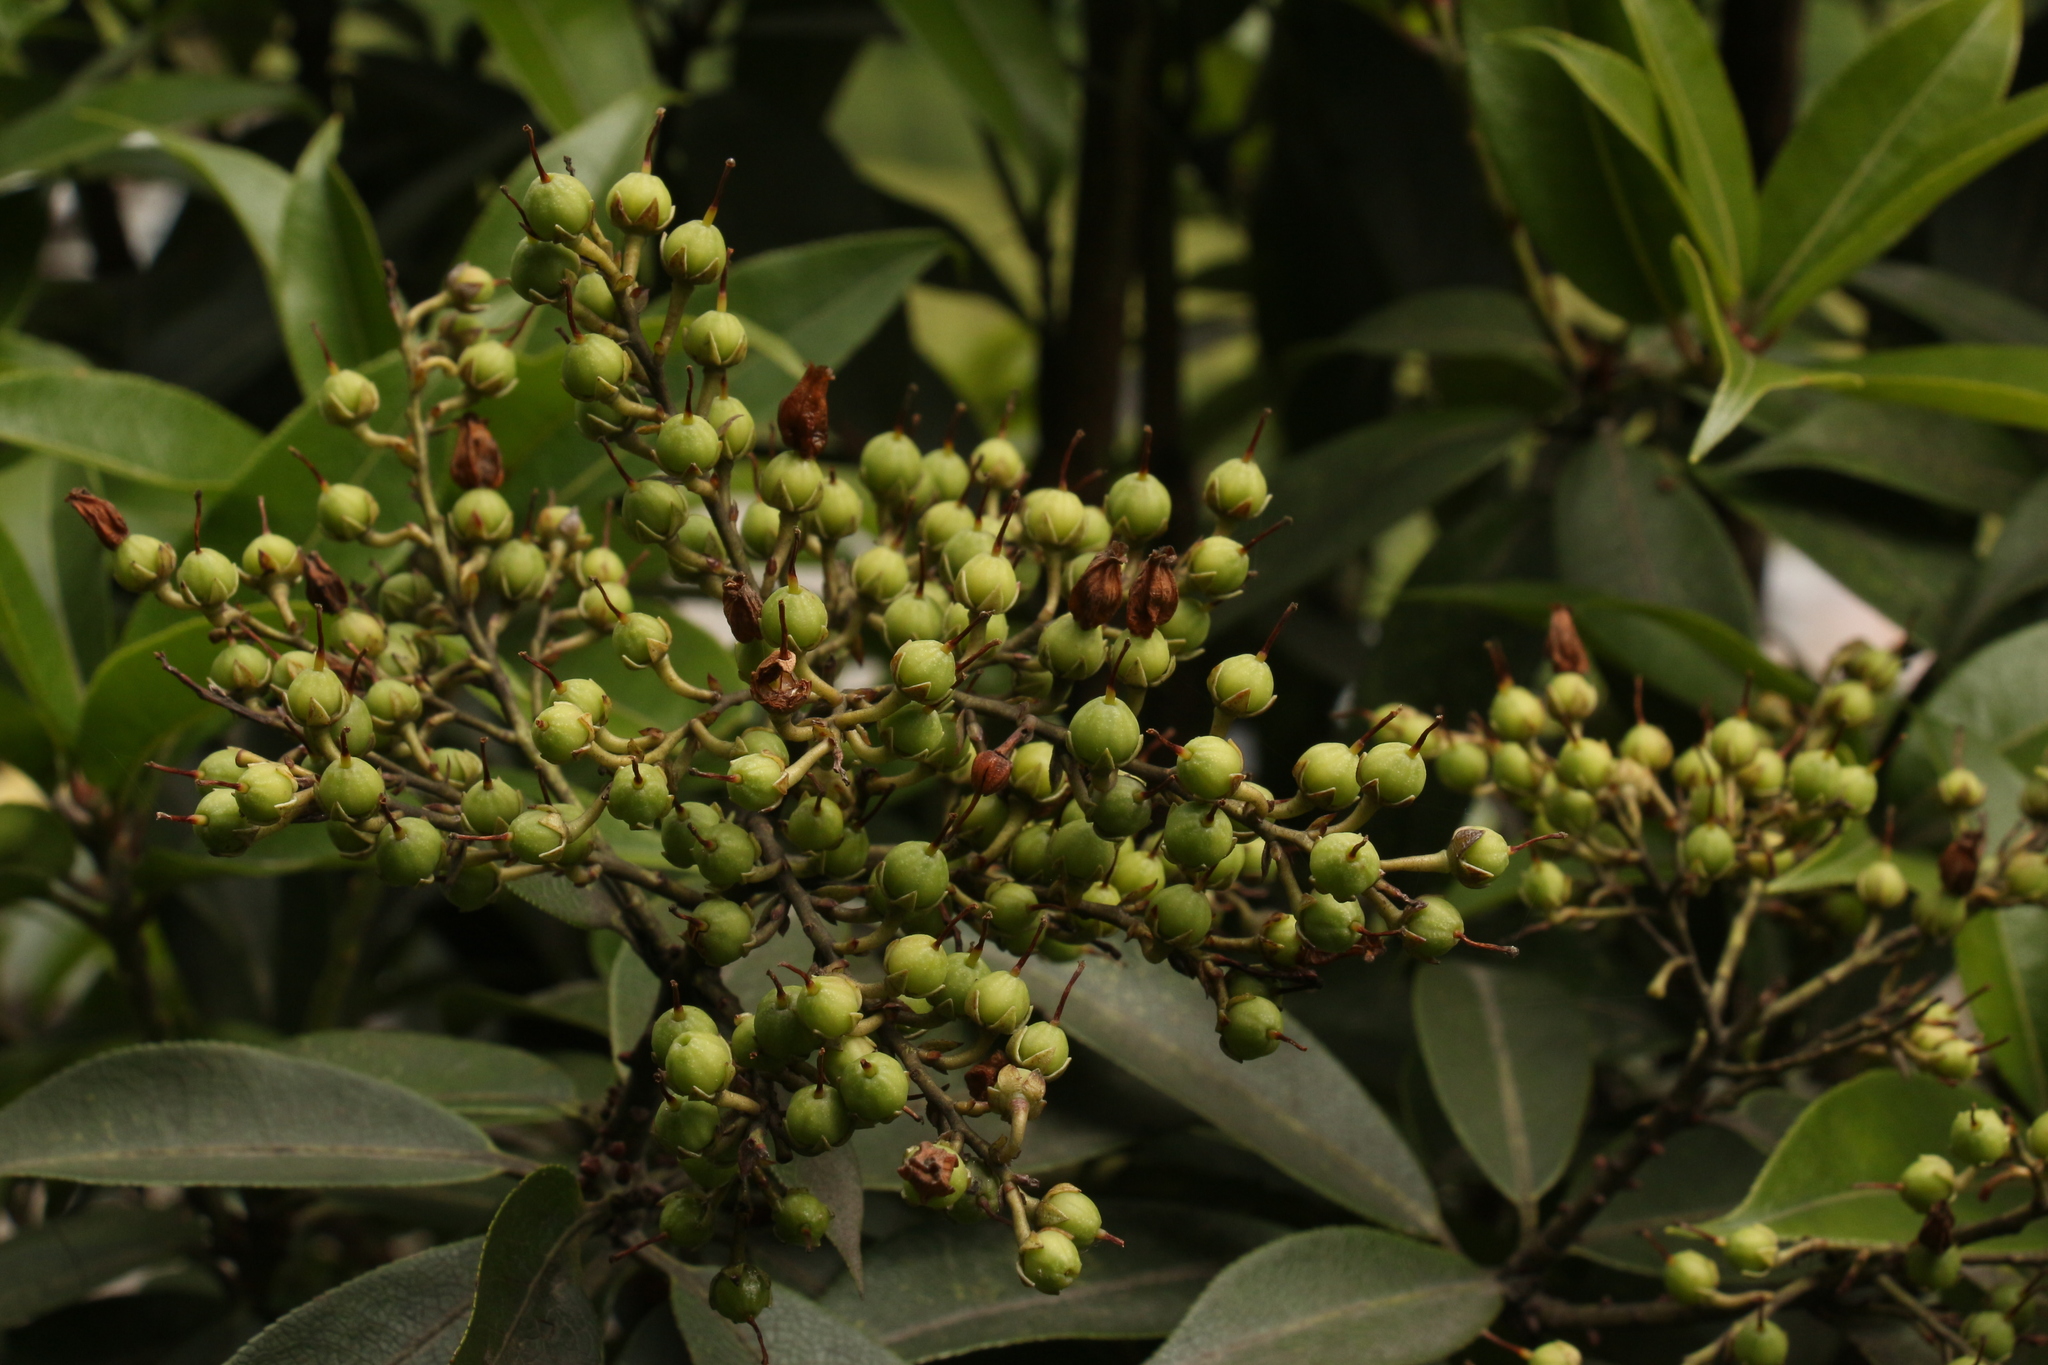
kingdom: Plantae
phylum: Tracheophyta
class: Magnoliopsida
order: Ericales
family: Ericaceae
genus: Pieris
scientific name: Pieris formosa
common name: Formosan pieris
